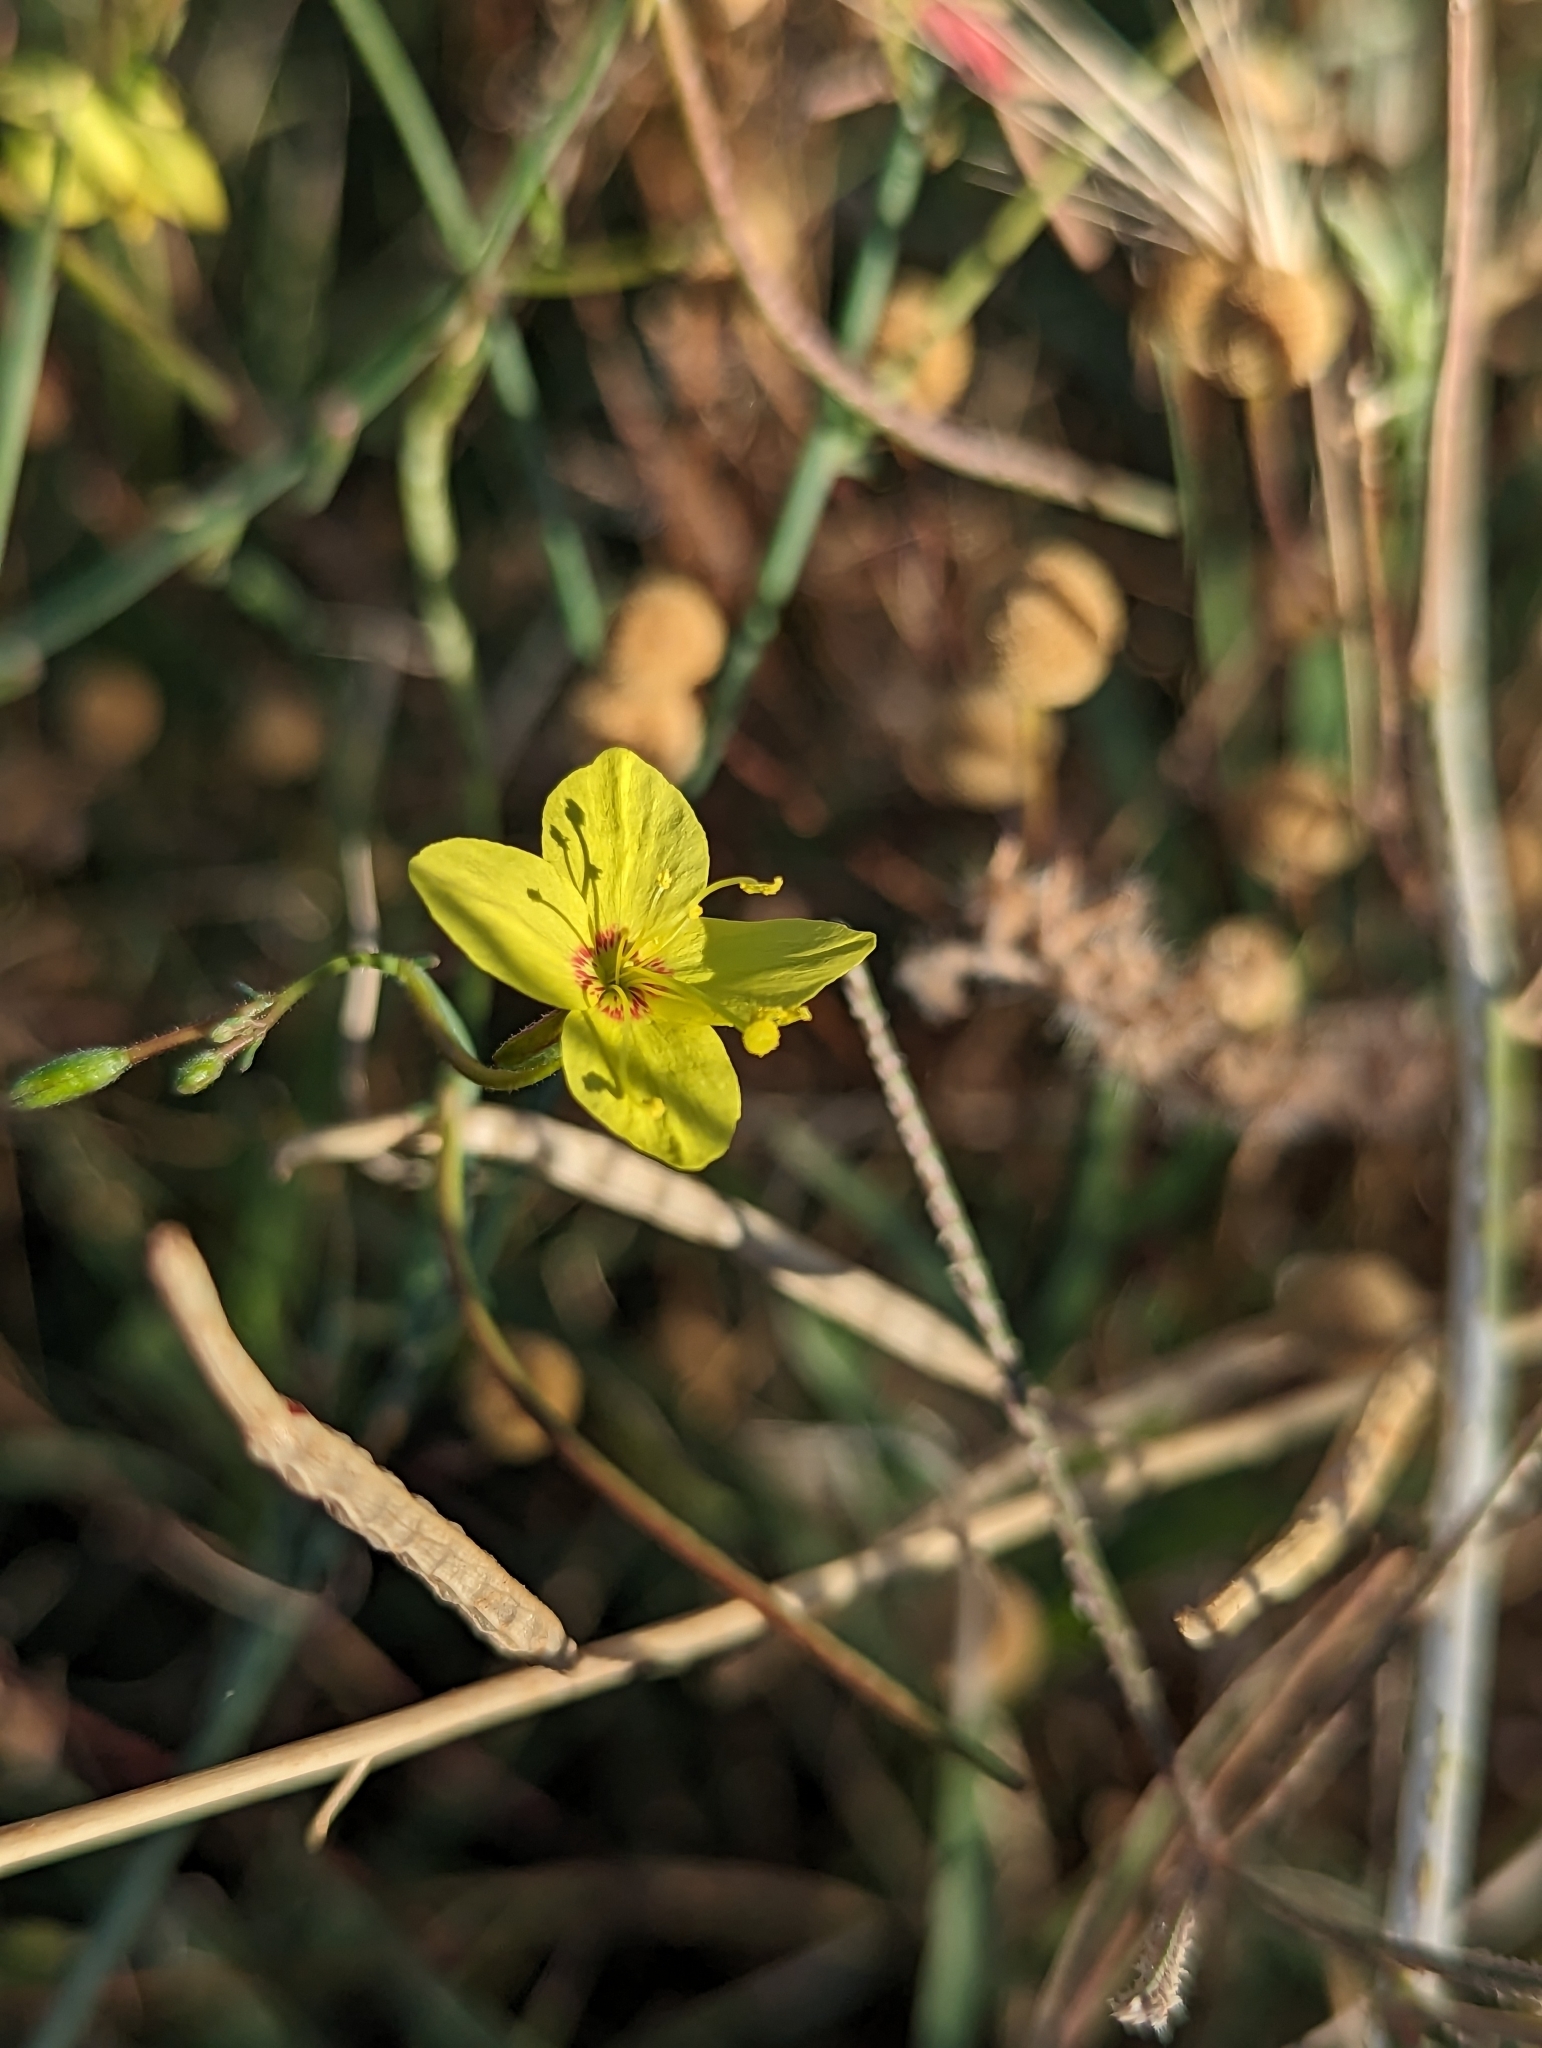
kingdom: Plantae
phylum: Tracheophyta
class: Magnoliopsida
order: Myrtales
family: Onagraceae
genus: Eulobus
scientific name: Eulobus californicus
